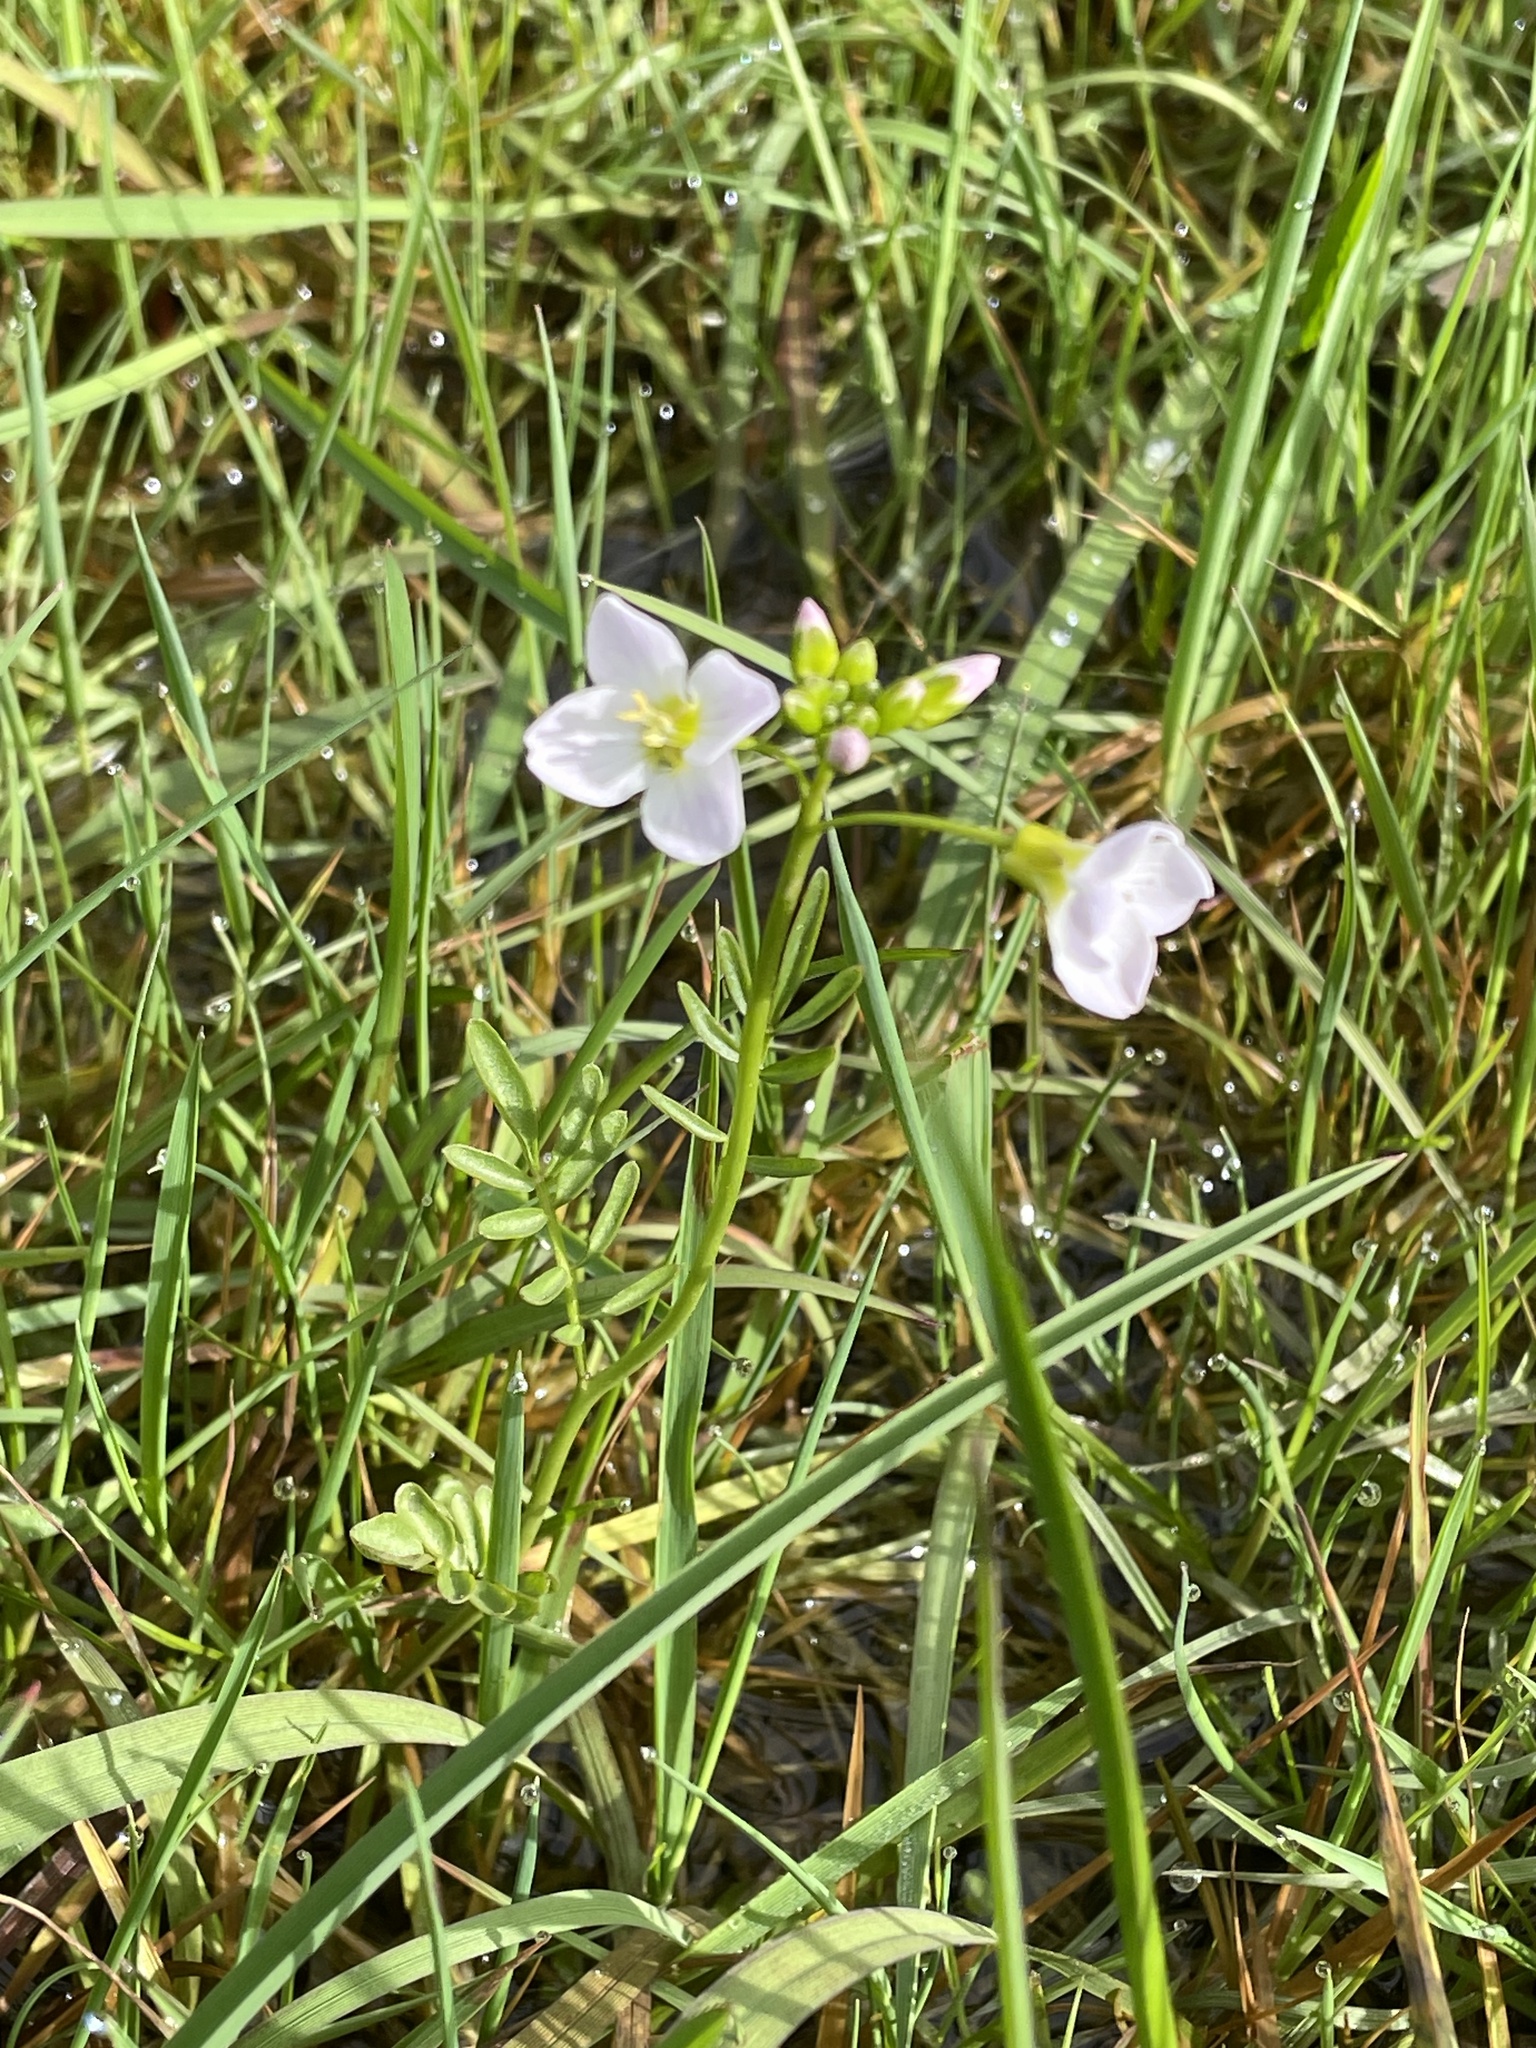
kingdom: Plantae
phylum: Tracheophyta
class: Magnoliopsida
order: Brassicales
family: Brassicaceae
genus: Cardamine
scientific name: Cardamine pratensis
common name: Cuckoo flower
